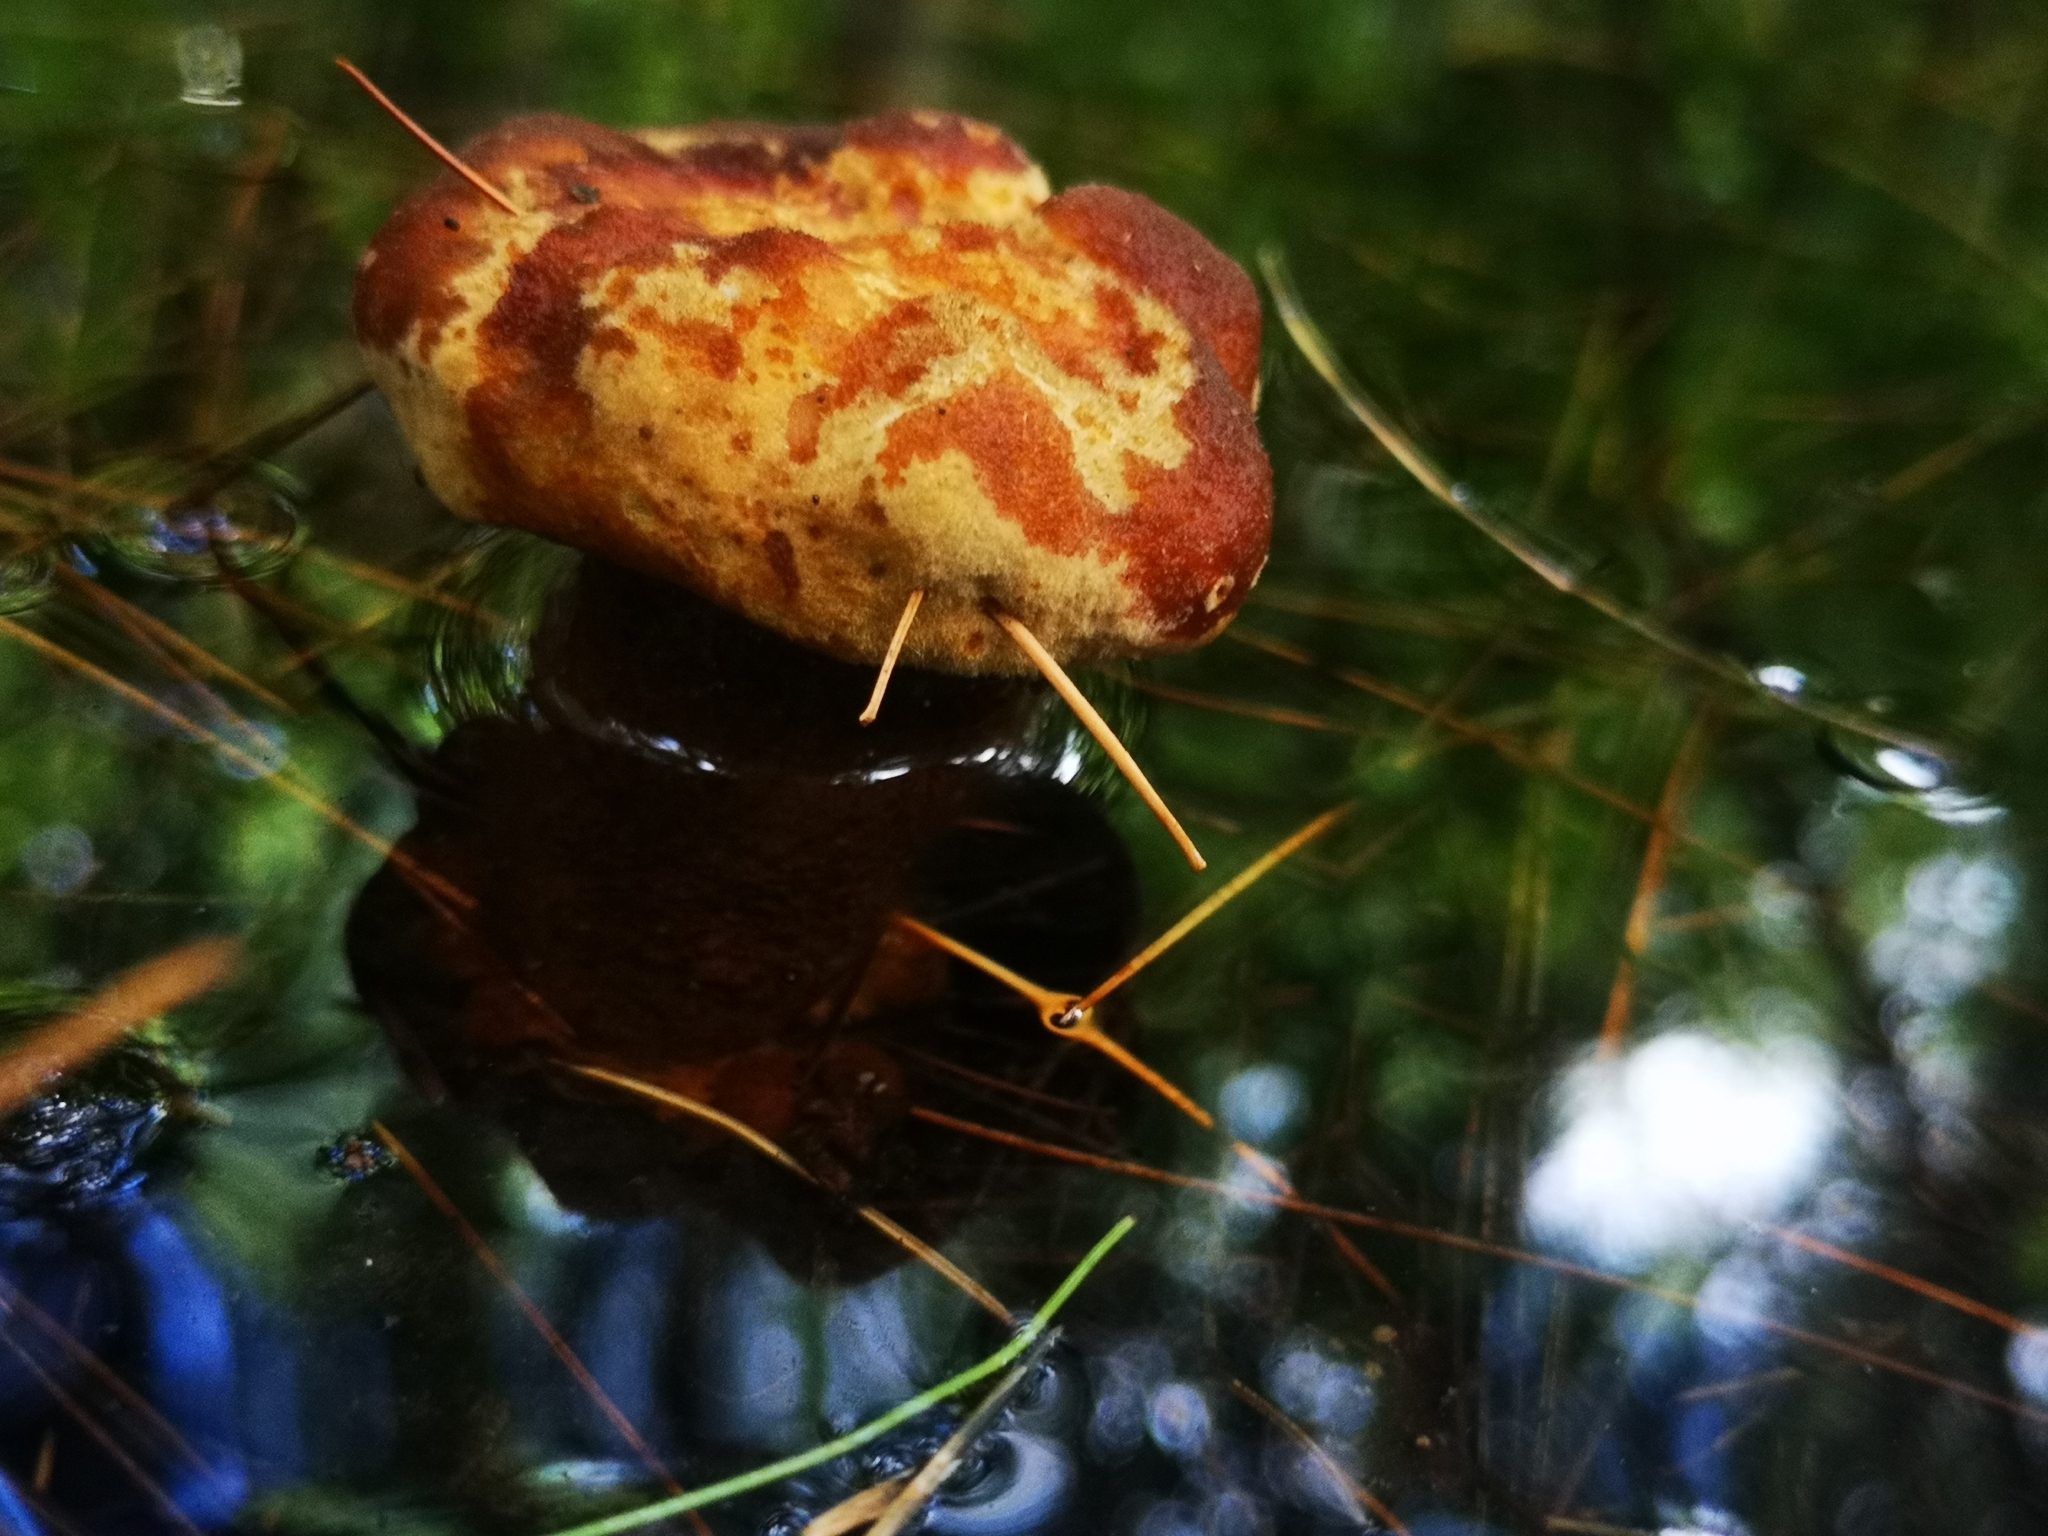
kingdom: Fungi
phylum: Basidiomycota
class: Agaricomycetes
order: Polyporales
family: Laetiporaceae
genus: Phaeolus
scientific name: Phaeolus schweinitzii
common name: Dyer's mazegill
